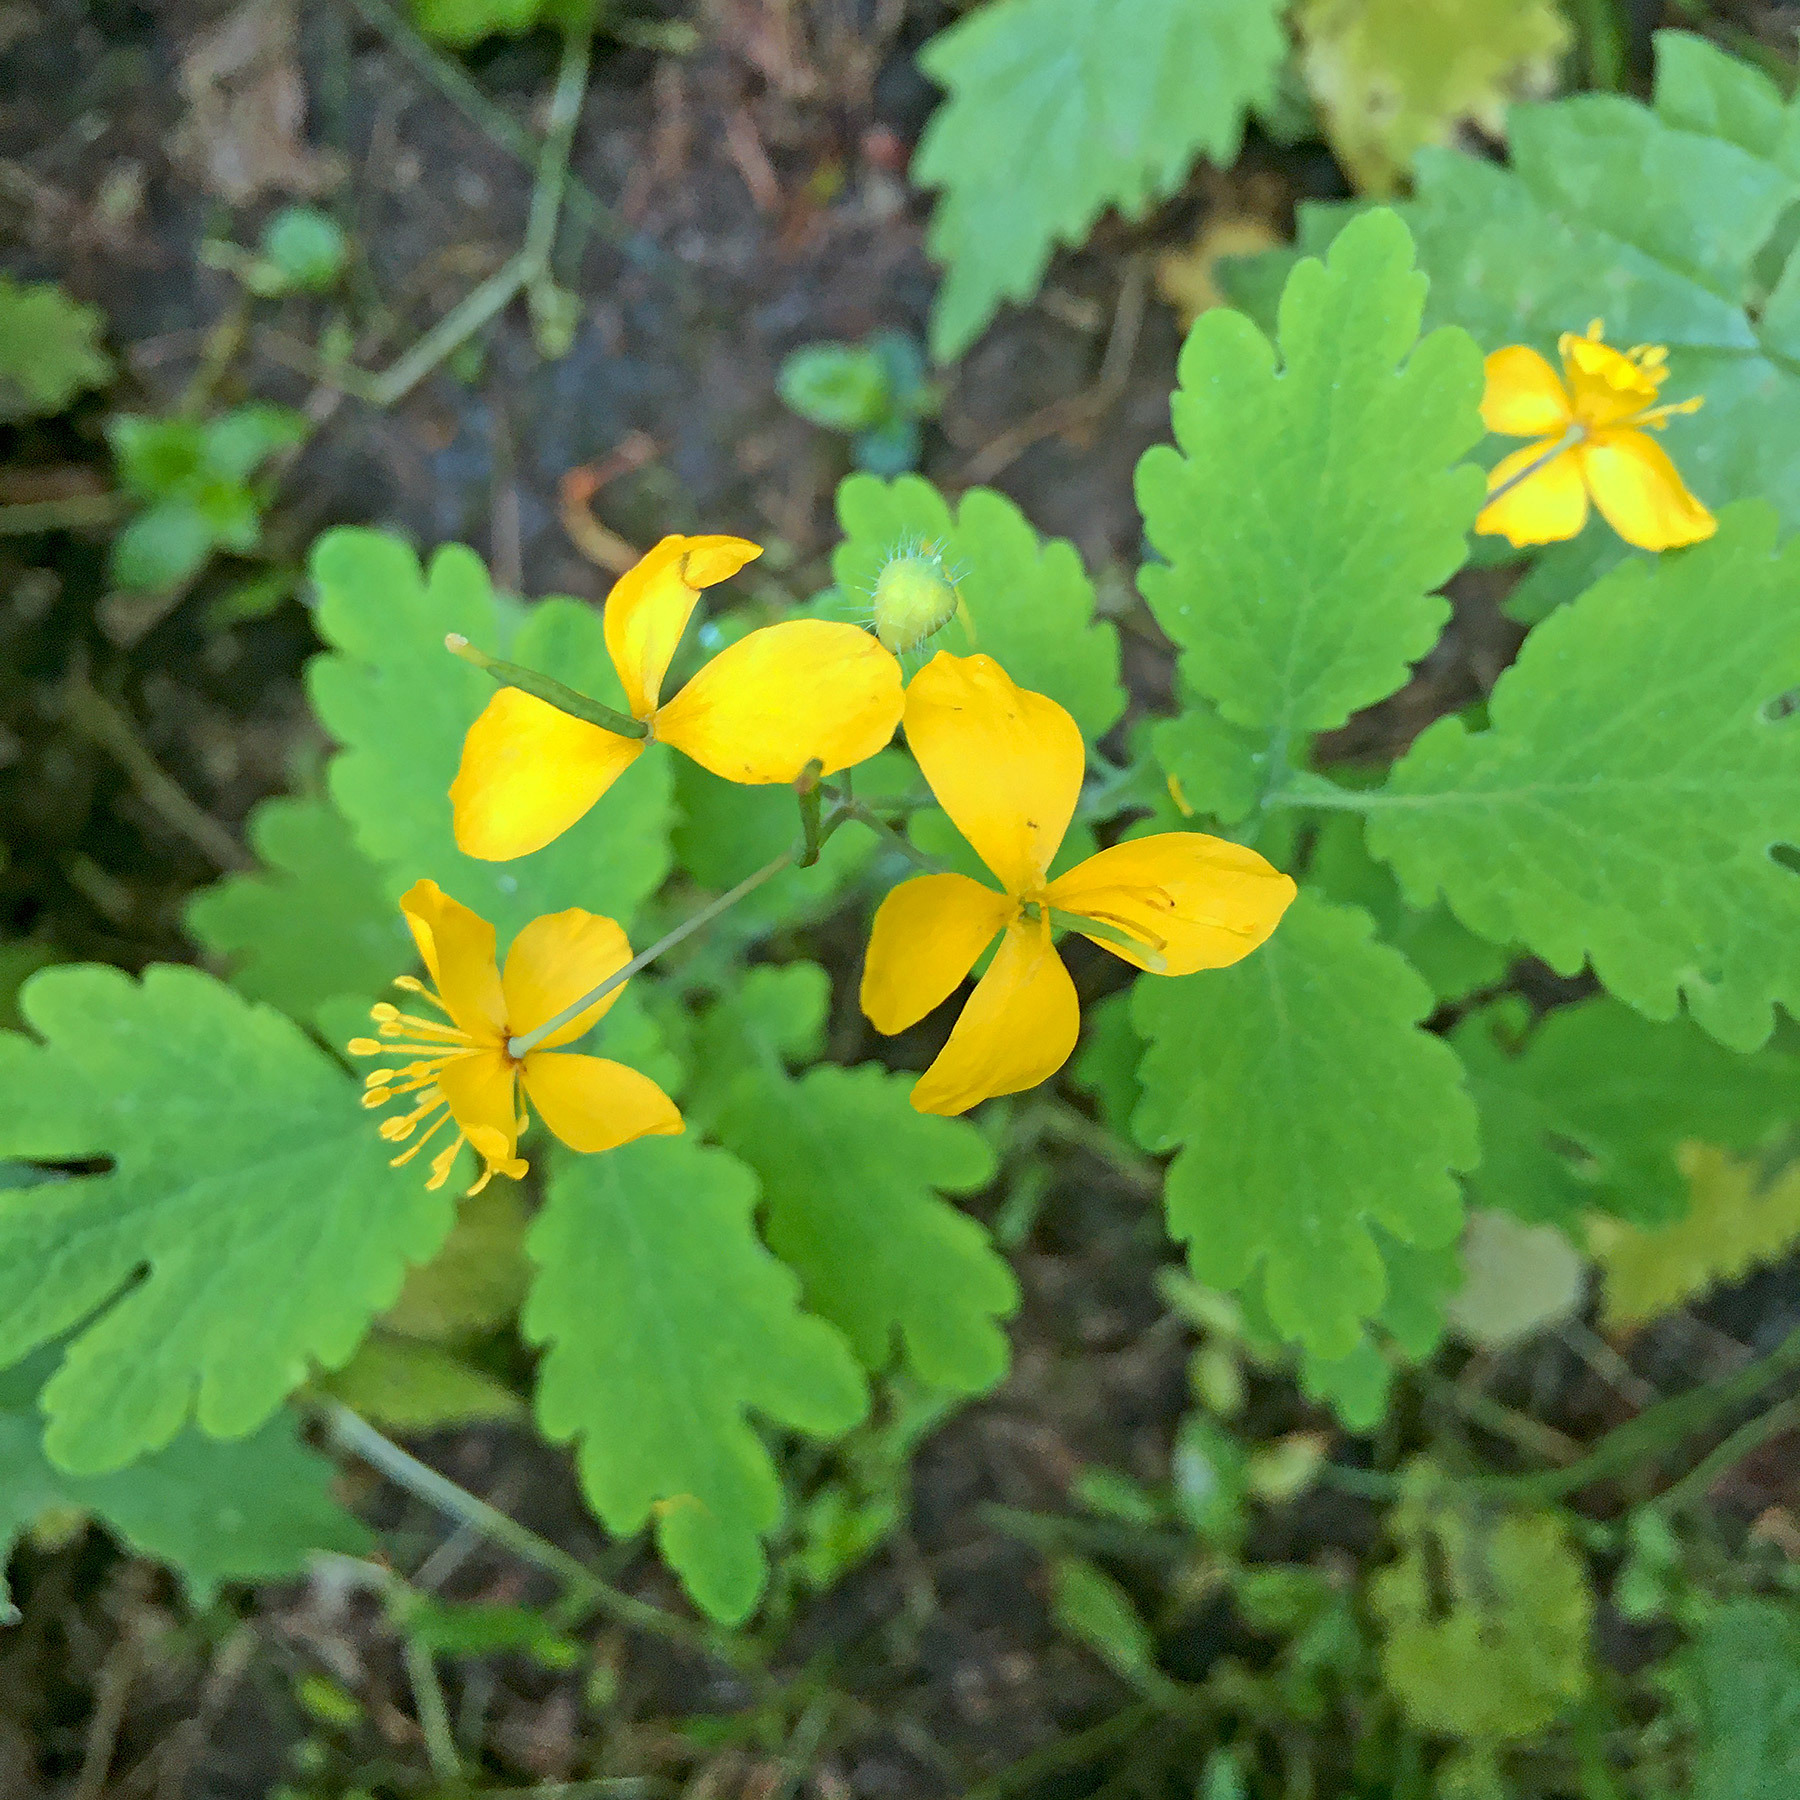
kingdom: Plantae
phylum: Tracheophyta
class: Magnoliopsida
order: Ranunculales
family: Papaveraceae
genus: Chelidonium
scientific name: Chelidonium majus
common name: Greater celandine
